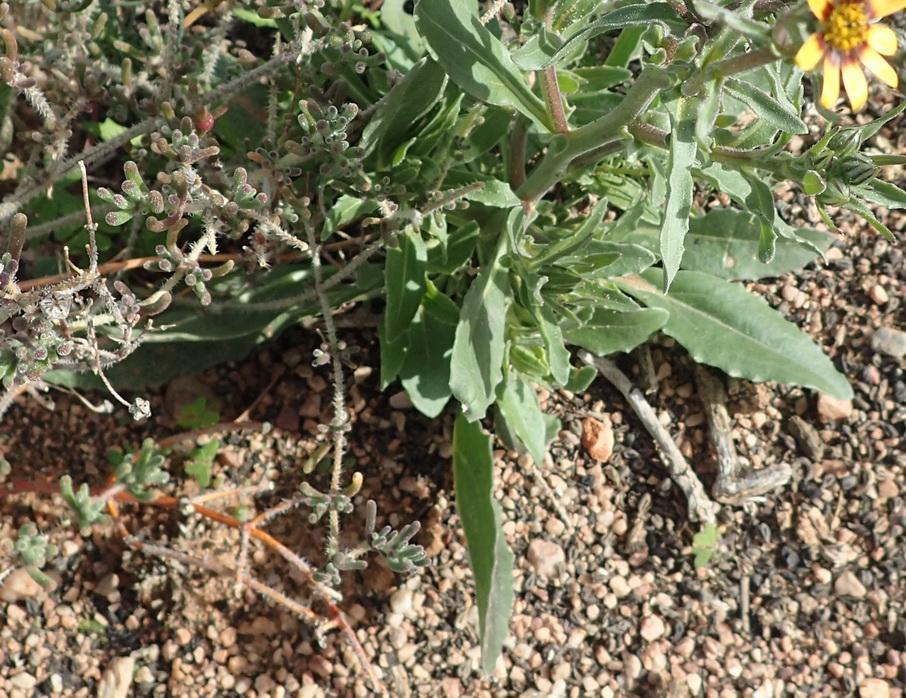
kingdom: Plantae
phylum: Tracheophyta
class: Magnoliopsida
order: Asterales
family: Asteraceae
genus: Osteospermum
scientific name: Osteospermum sinuatum
